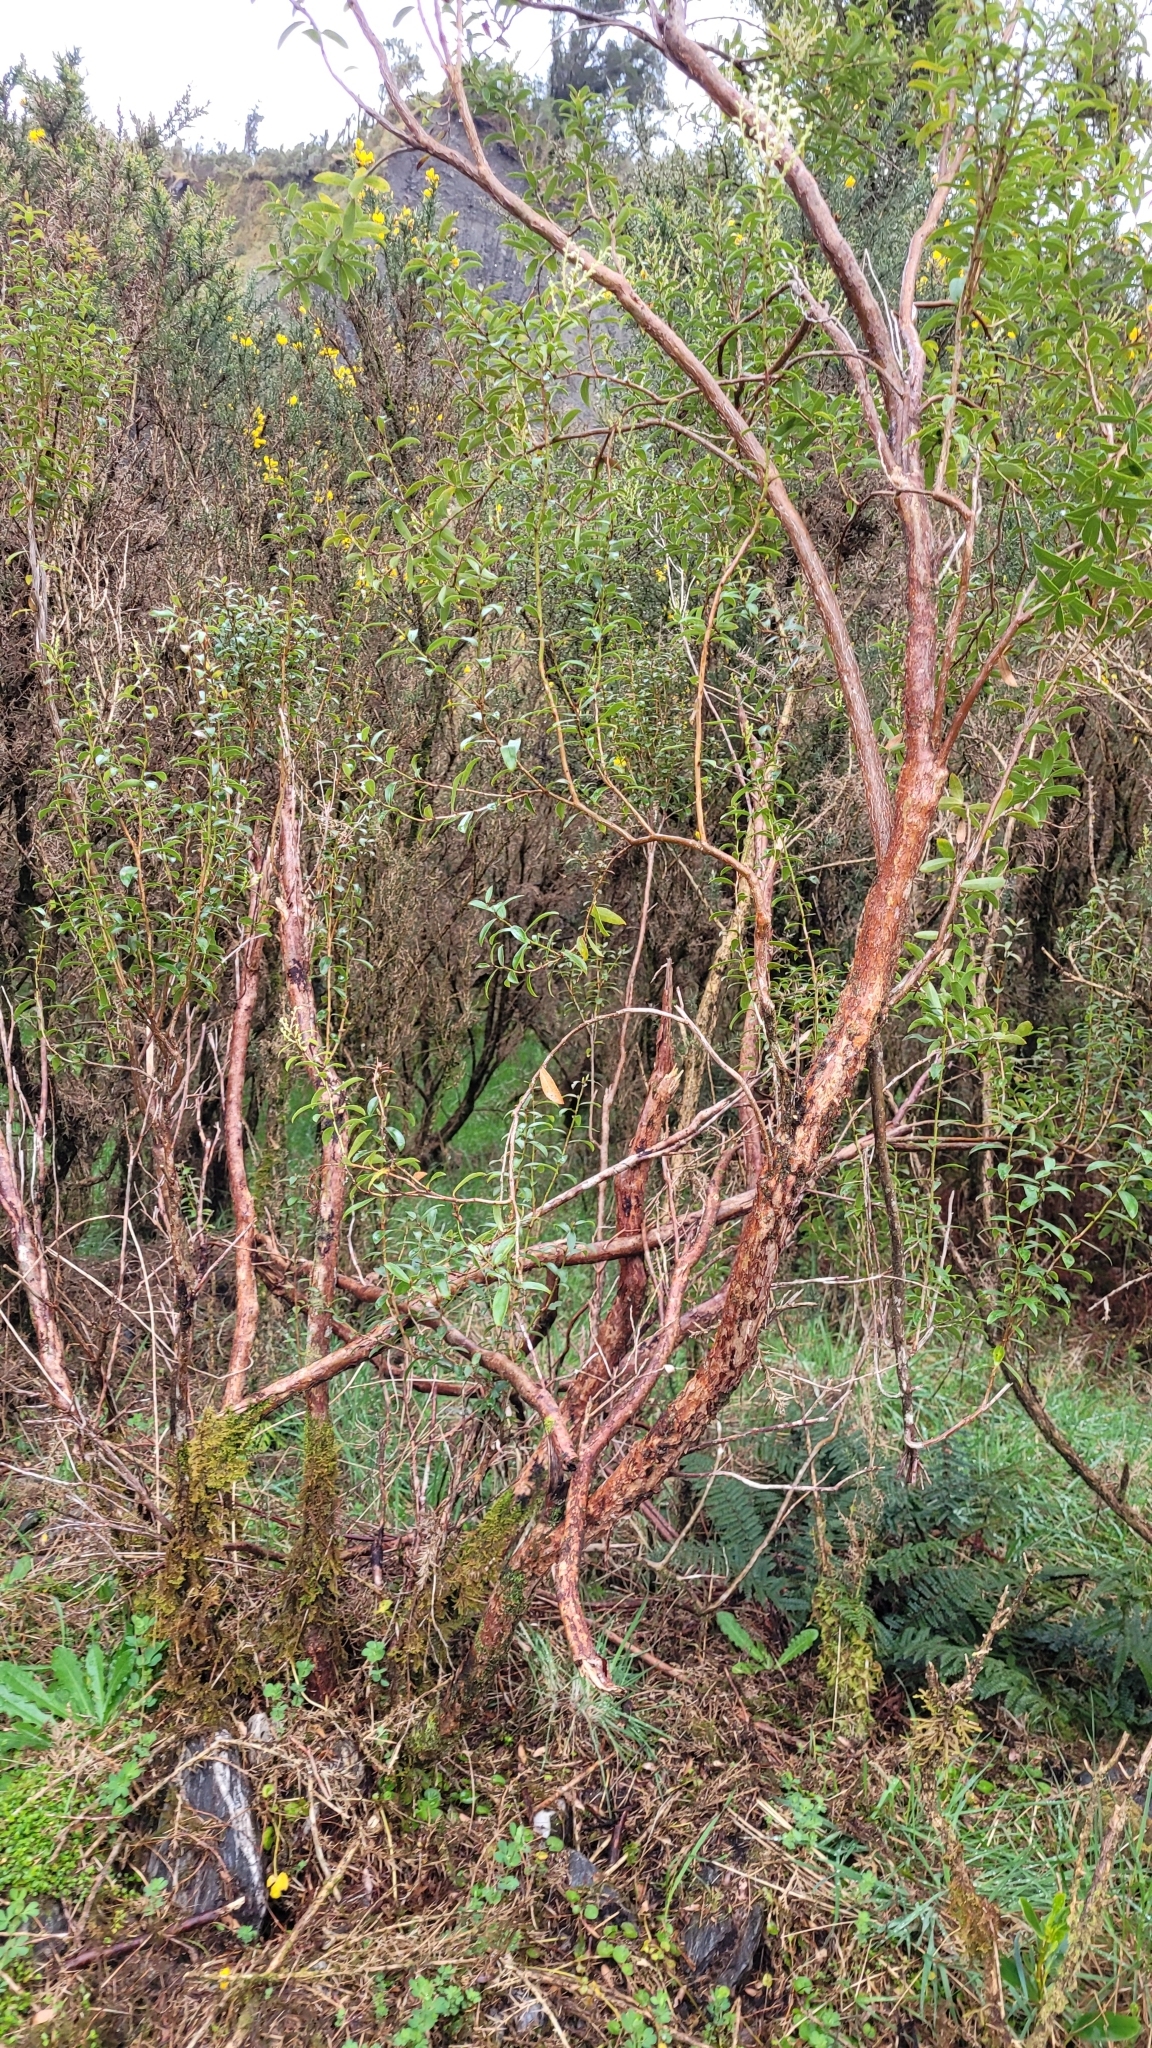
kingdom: Plantae
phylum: Tracheophyta
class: Magnoliopsida
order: Ericales
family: Ericaceae
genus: Gaultheria
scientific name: Gaultheria rupestris
